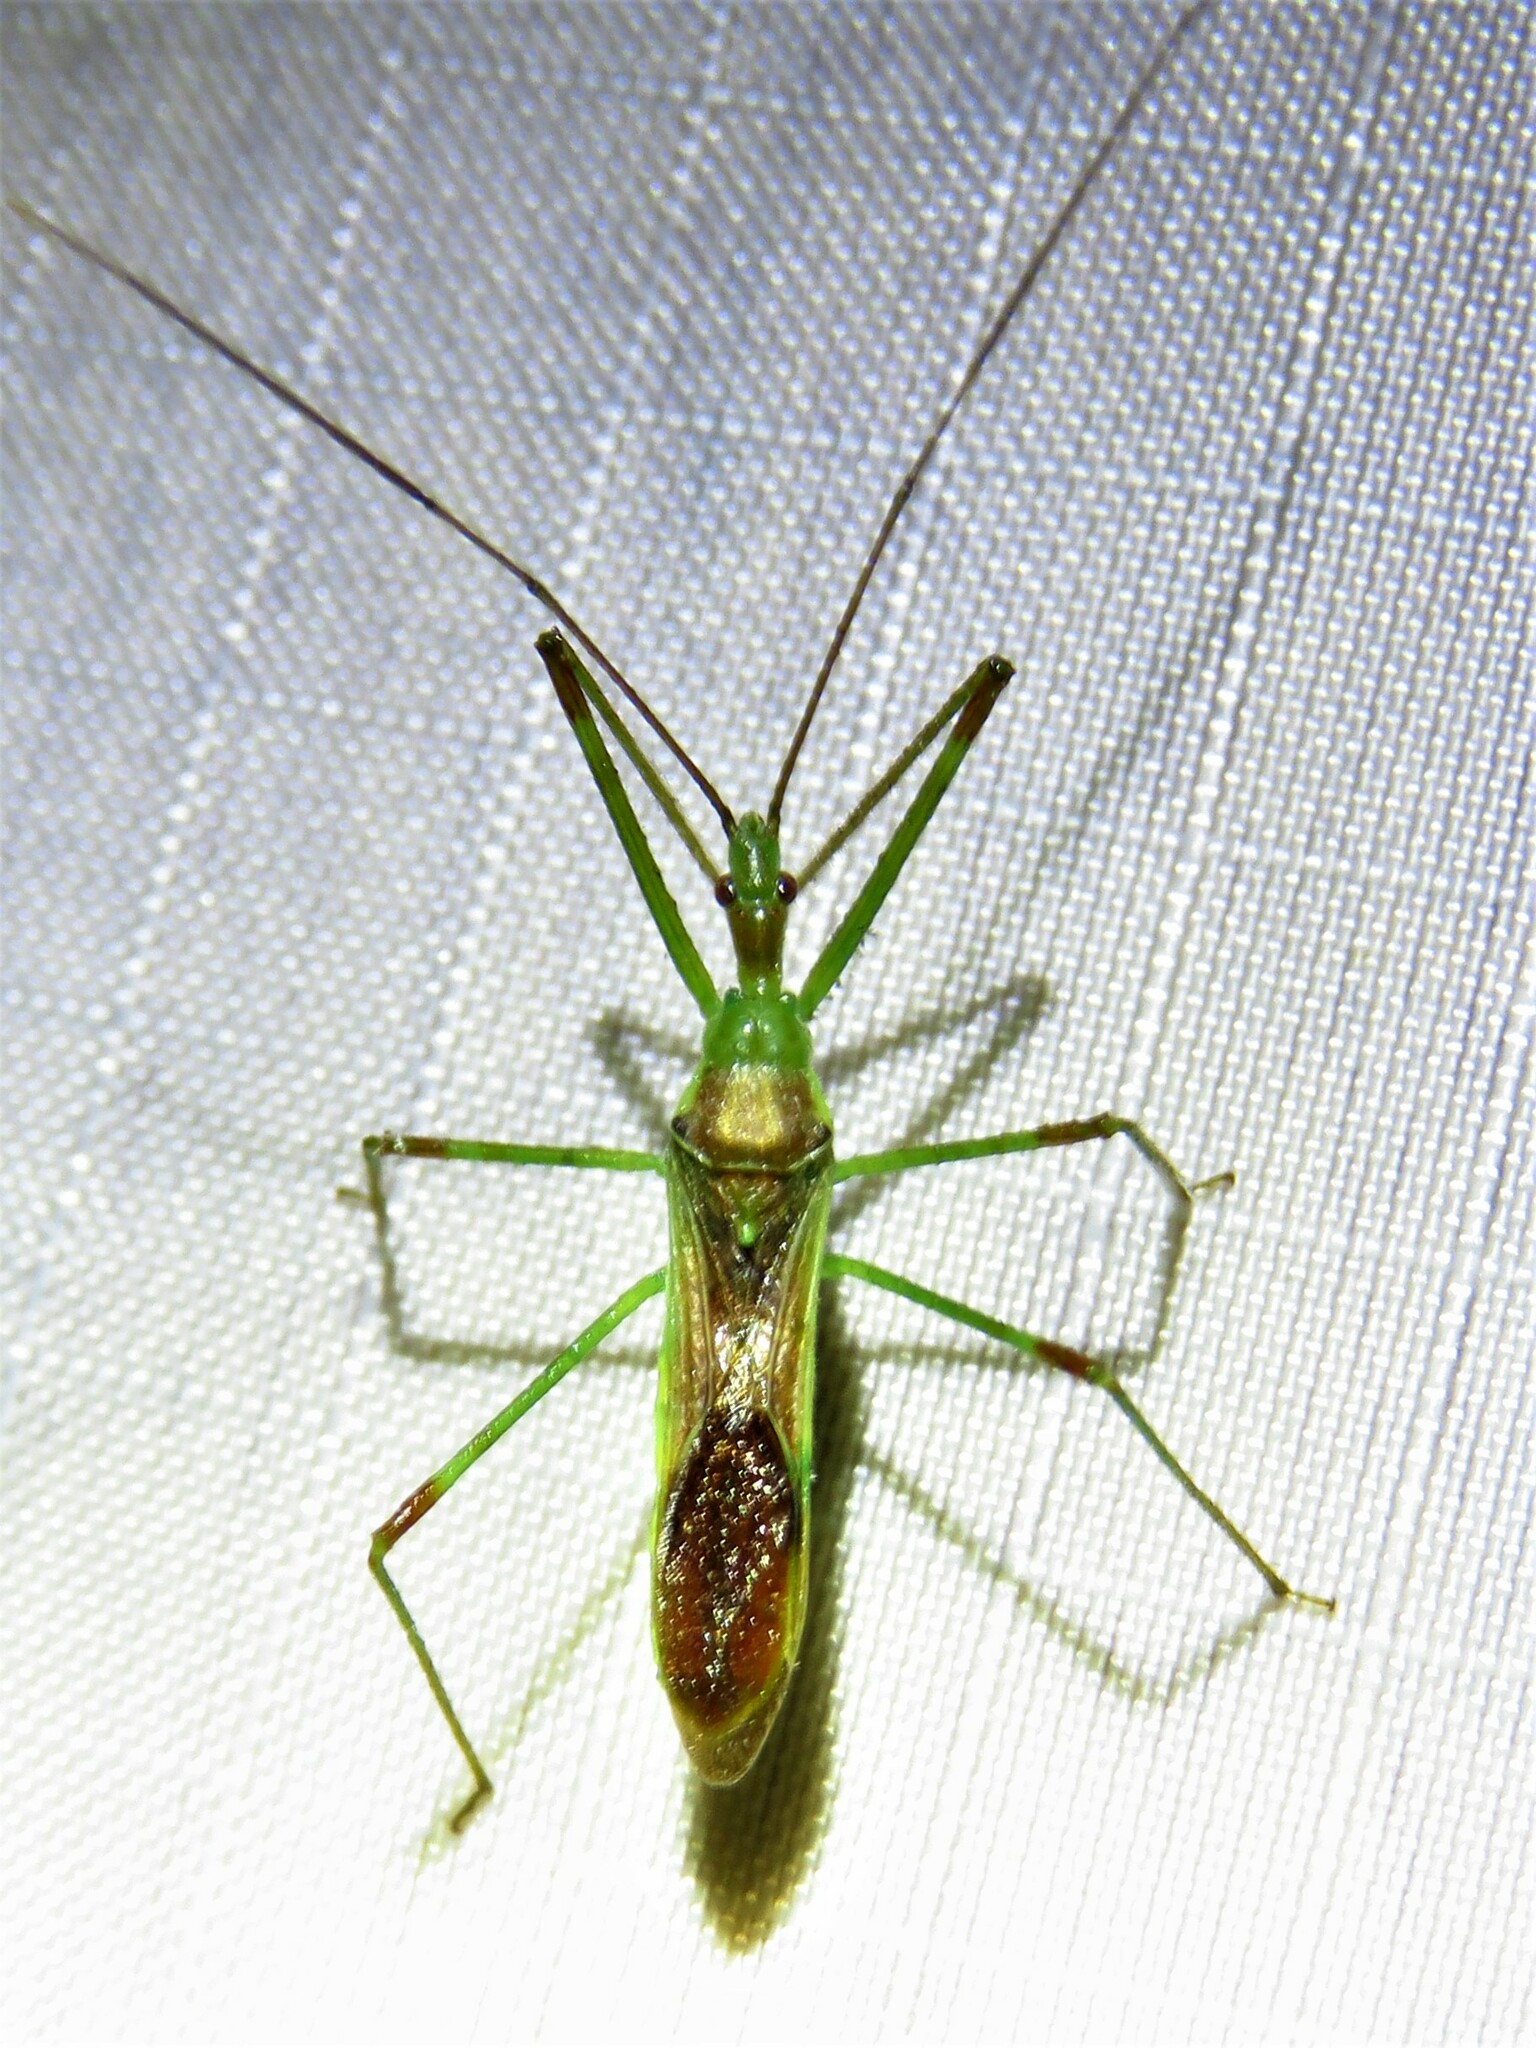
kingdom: Animalia
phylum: Arthropoda
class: Insecta
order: Hemiptera
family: Reduviidae
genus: Zelus
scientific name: Zelus luridus
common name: Pale green assassin bug
